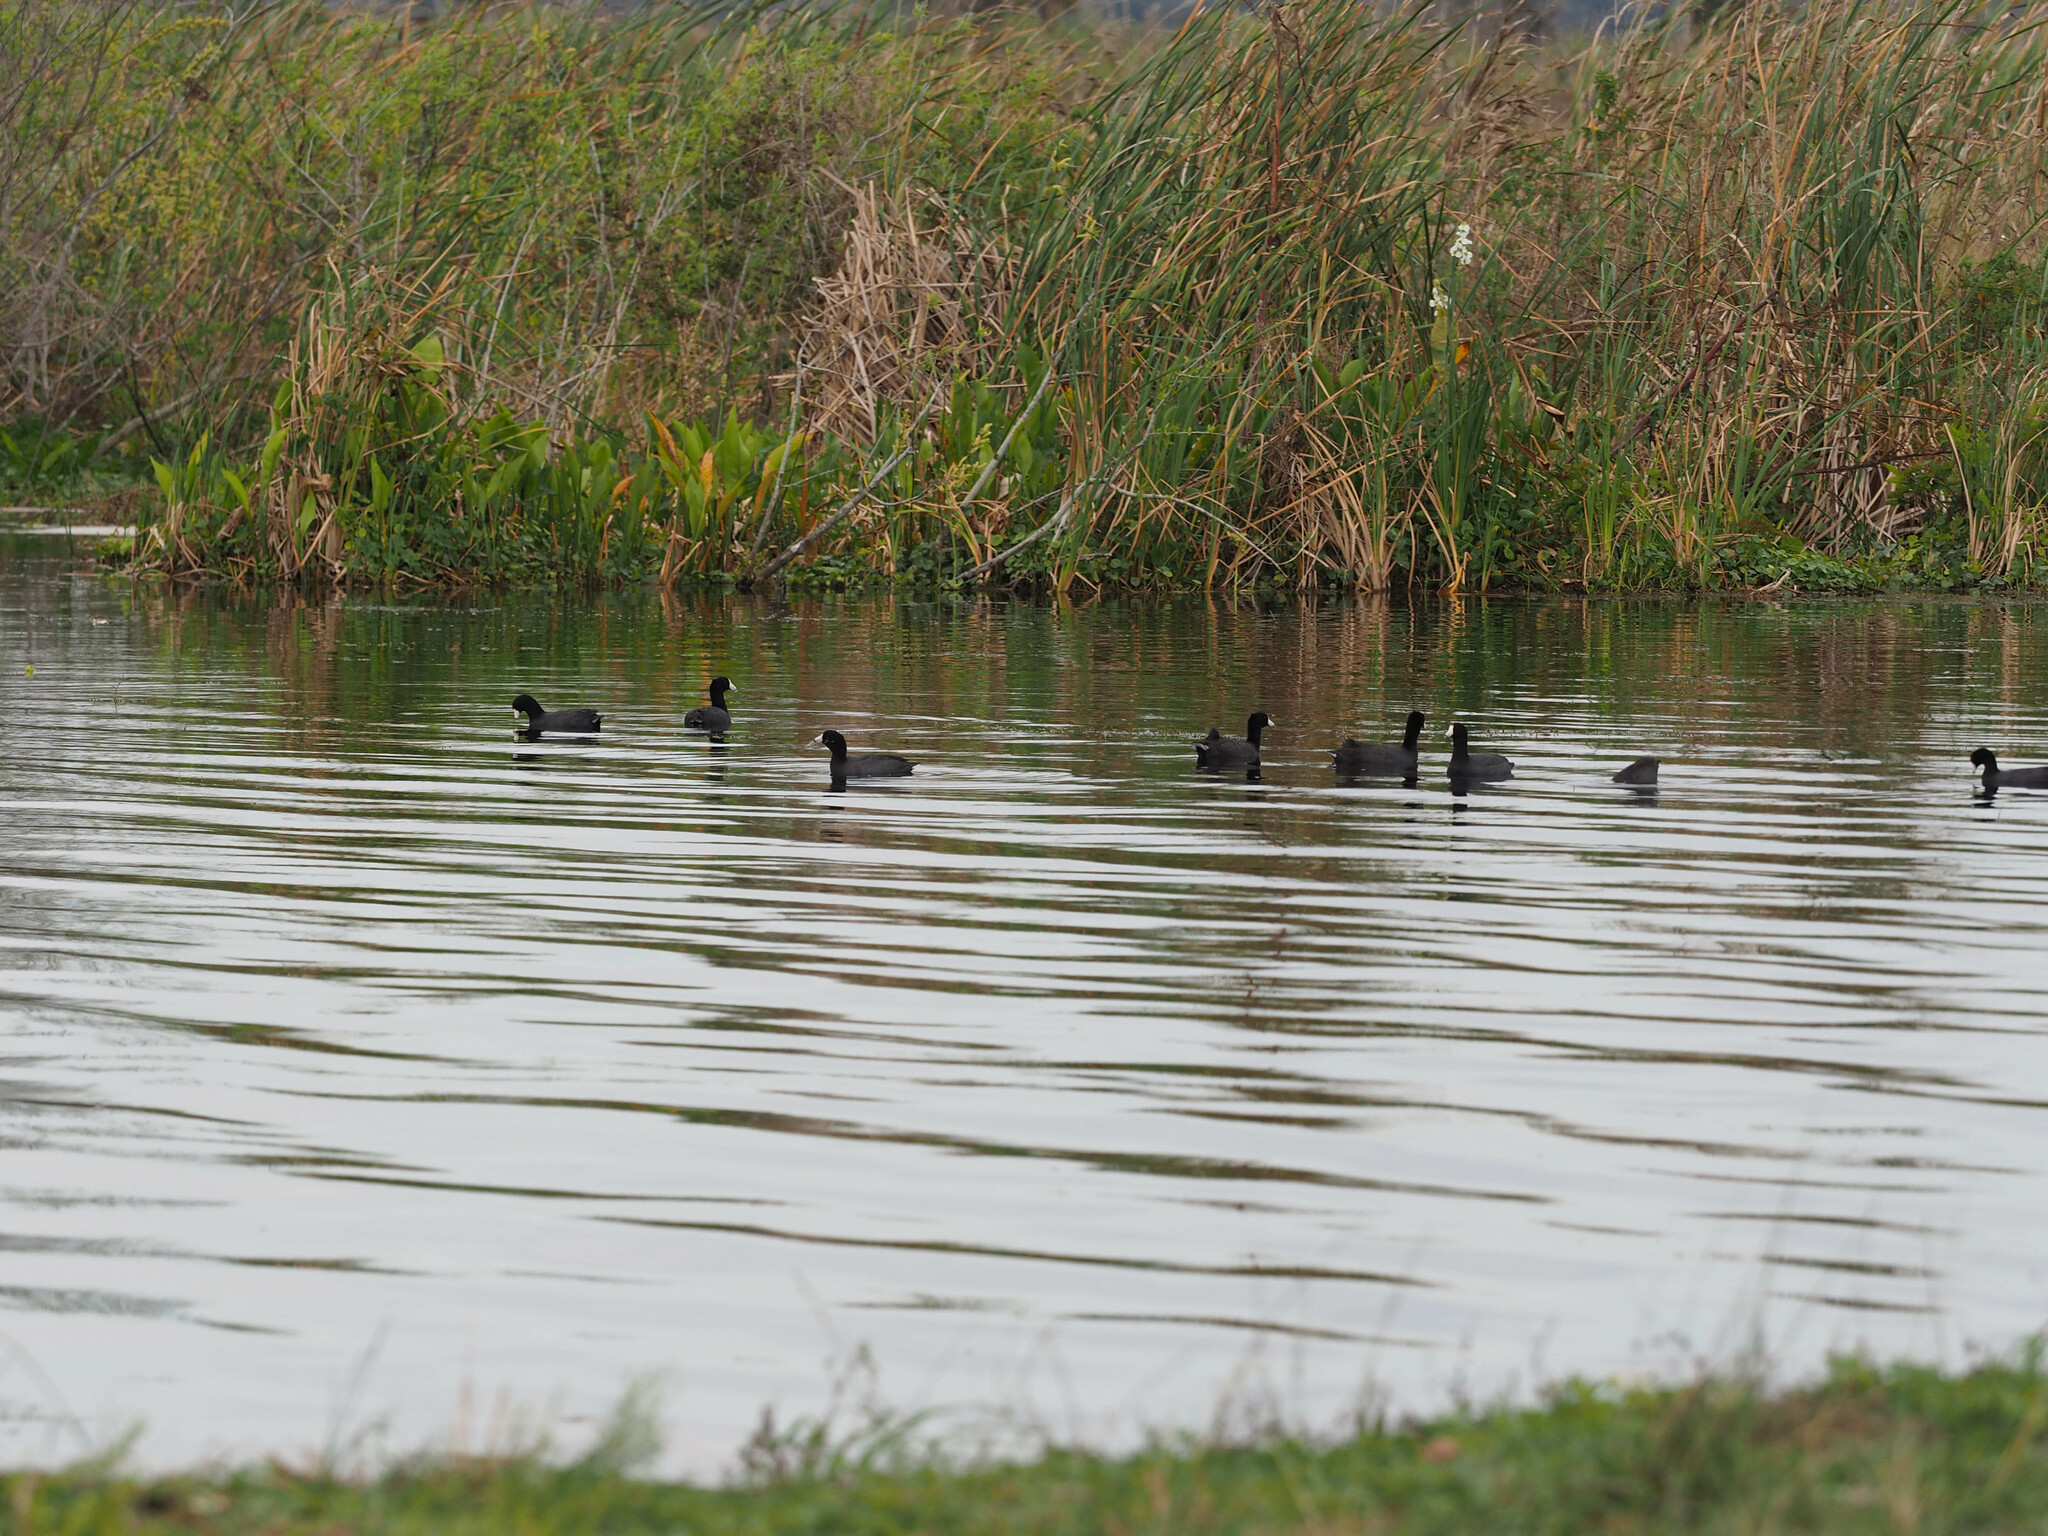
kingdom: Animalia
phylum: Chordata
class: Aves
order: Gruiformes
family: Rallidae
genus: Fulica
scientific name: Fulica americana
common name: American coot
